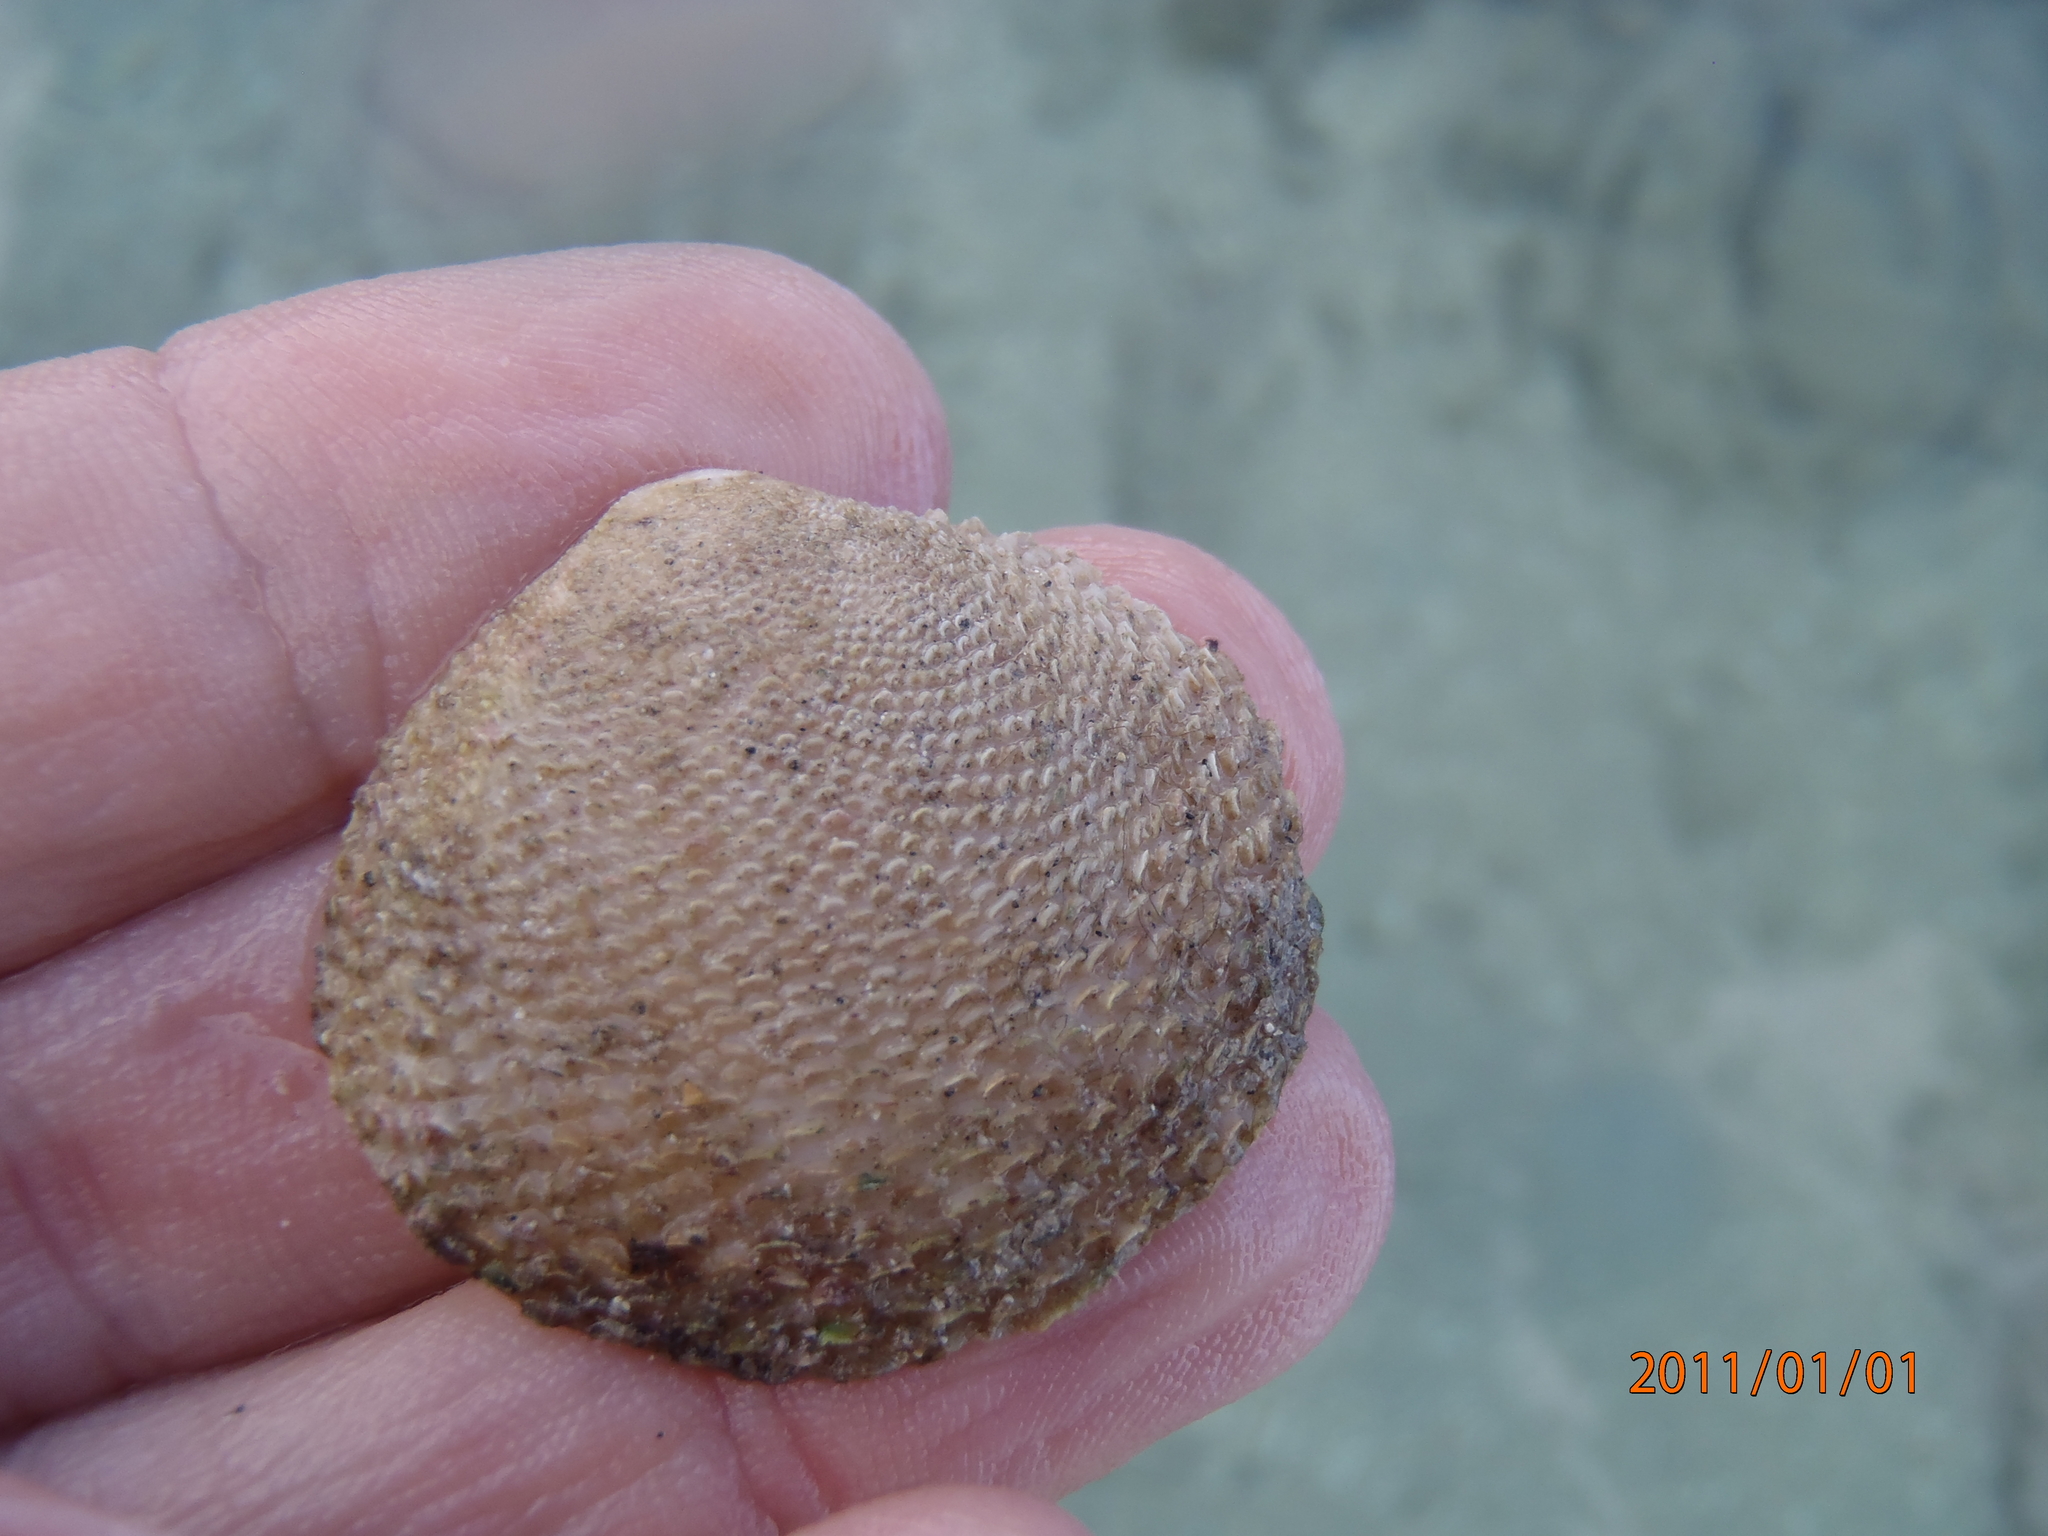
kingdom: Animalia
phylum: Mollusca
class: Bivalvia
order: Cardiida
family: Tellinidae
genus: Scutarcopagia
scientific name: Scutarcopagia scobinata
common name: Rasp tellin
